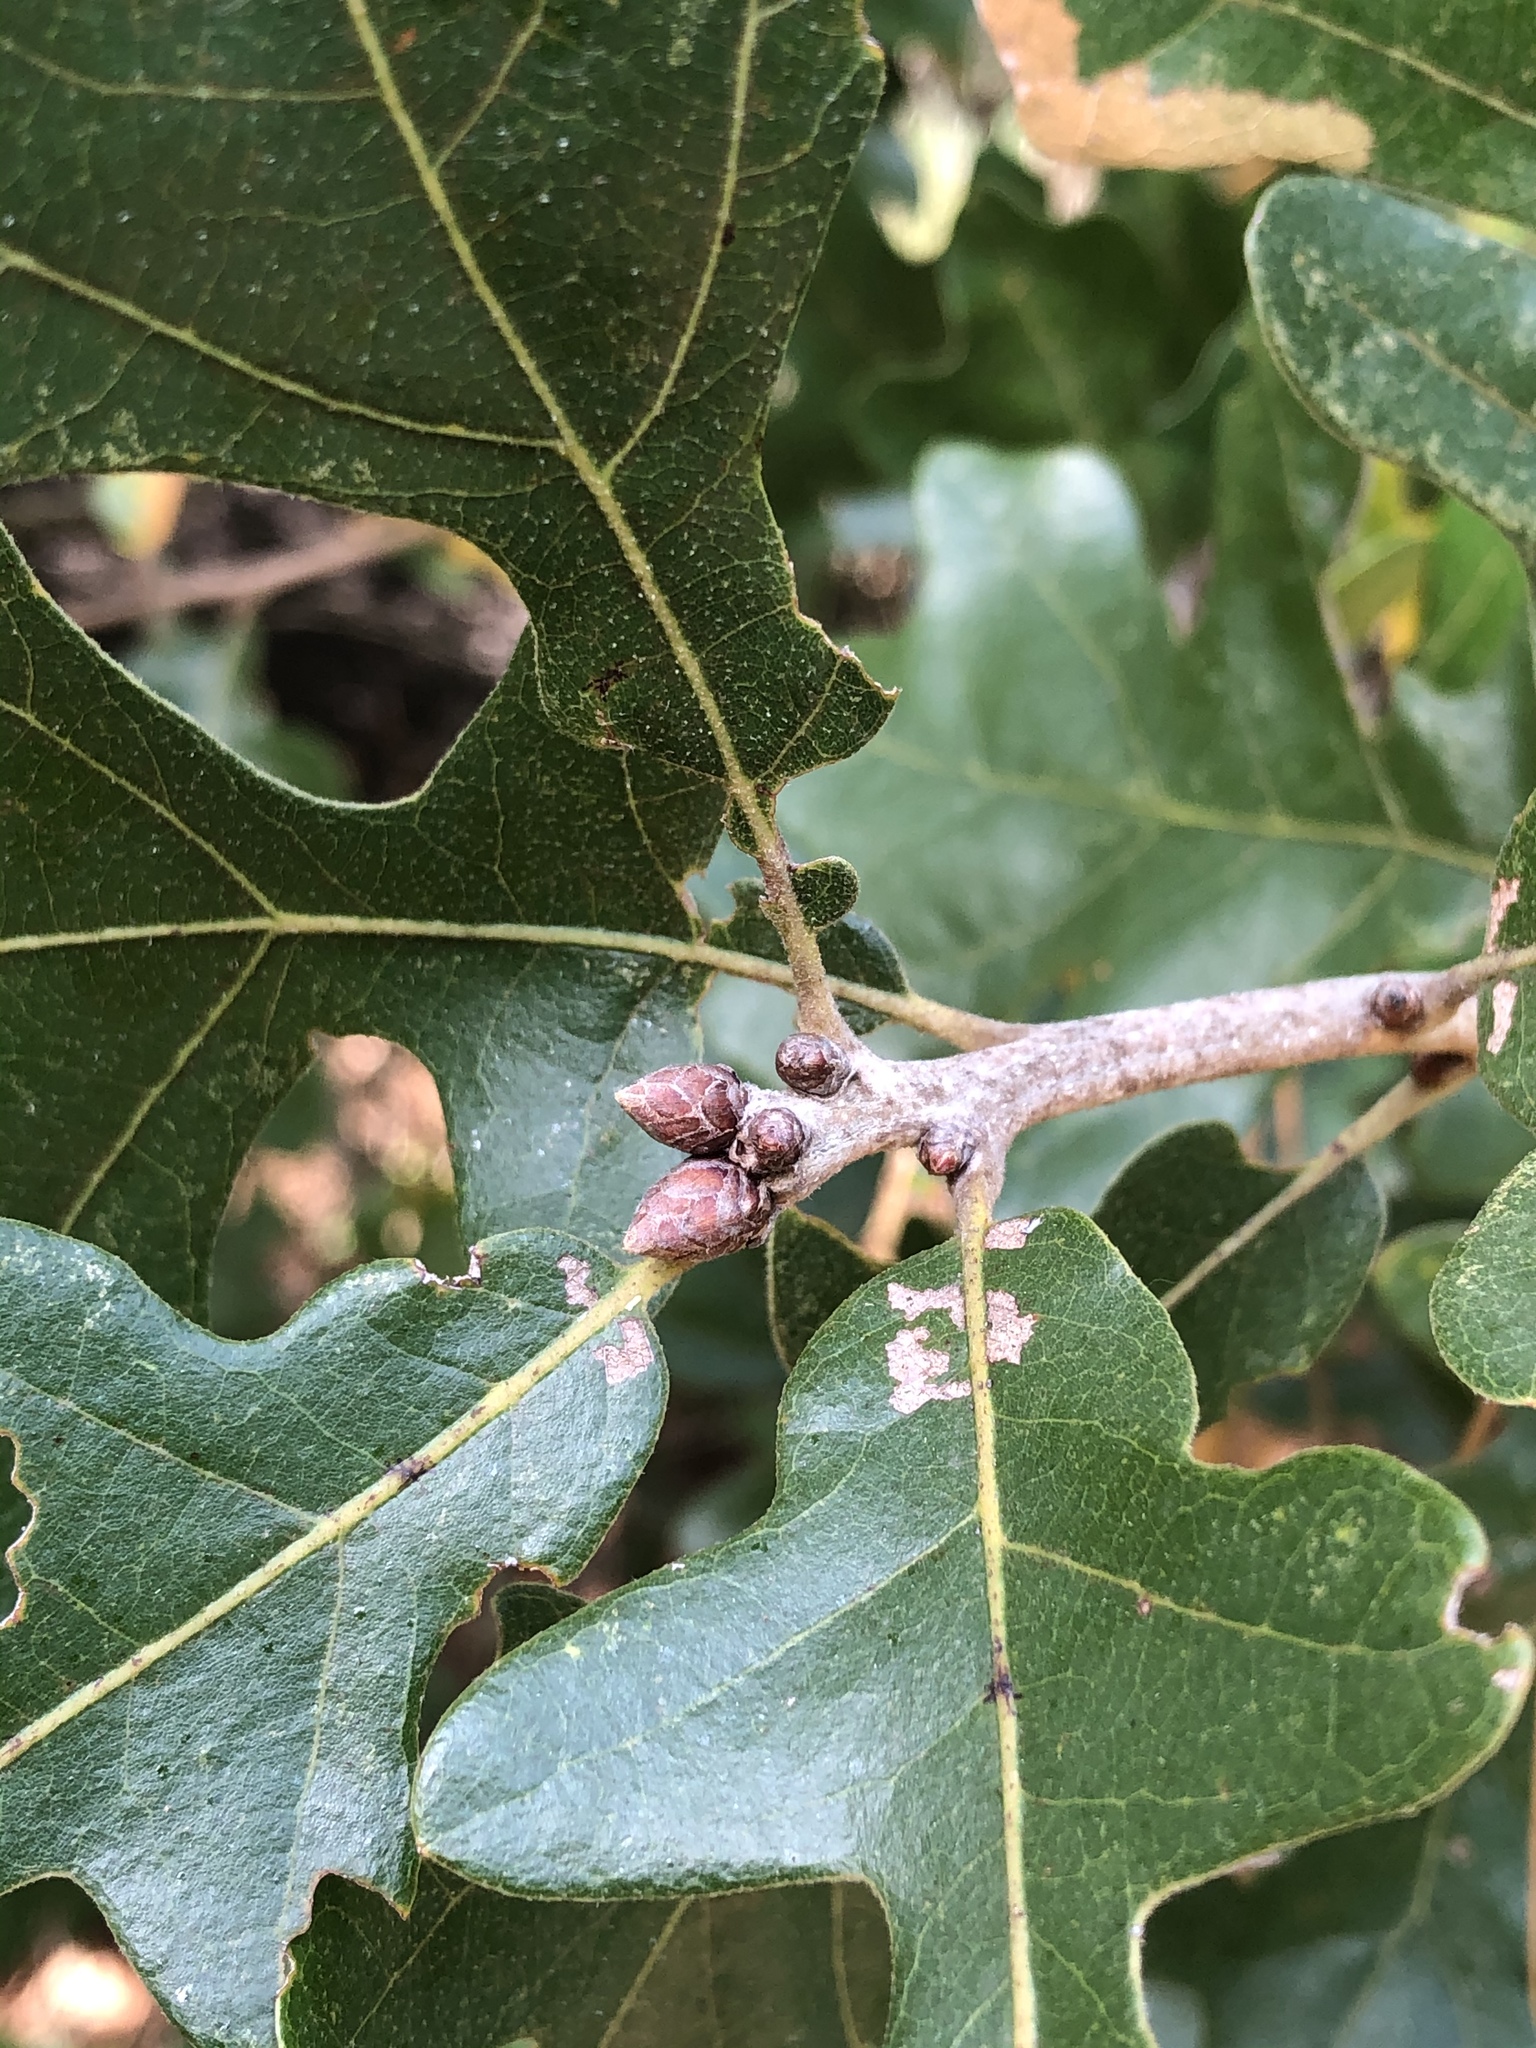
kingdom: Plantae
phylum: Tracheophyta
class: Magnoliopsida
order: Fagales
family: Fagaceae
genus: Quercus
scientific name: Quercus stellata
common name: Post oak
